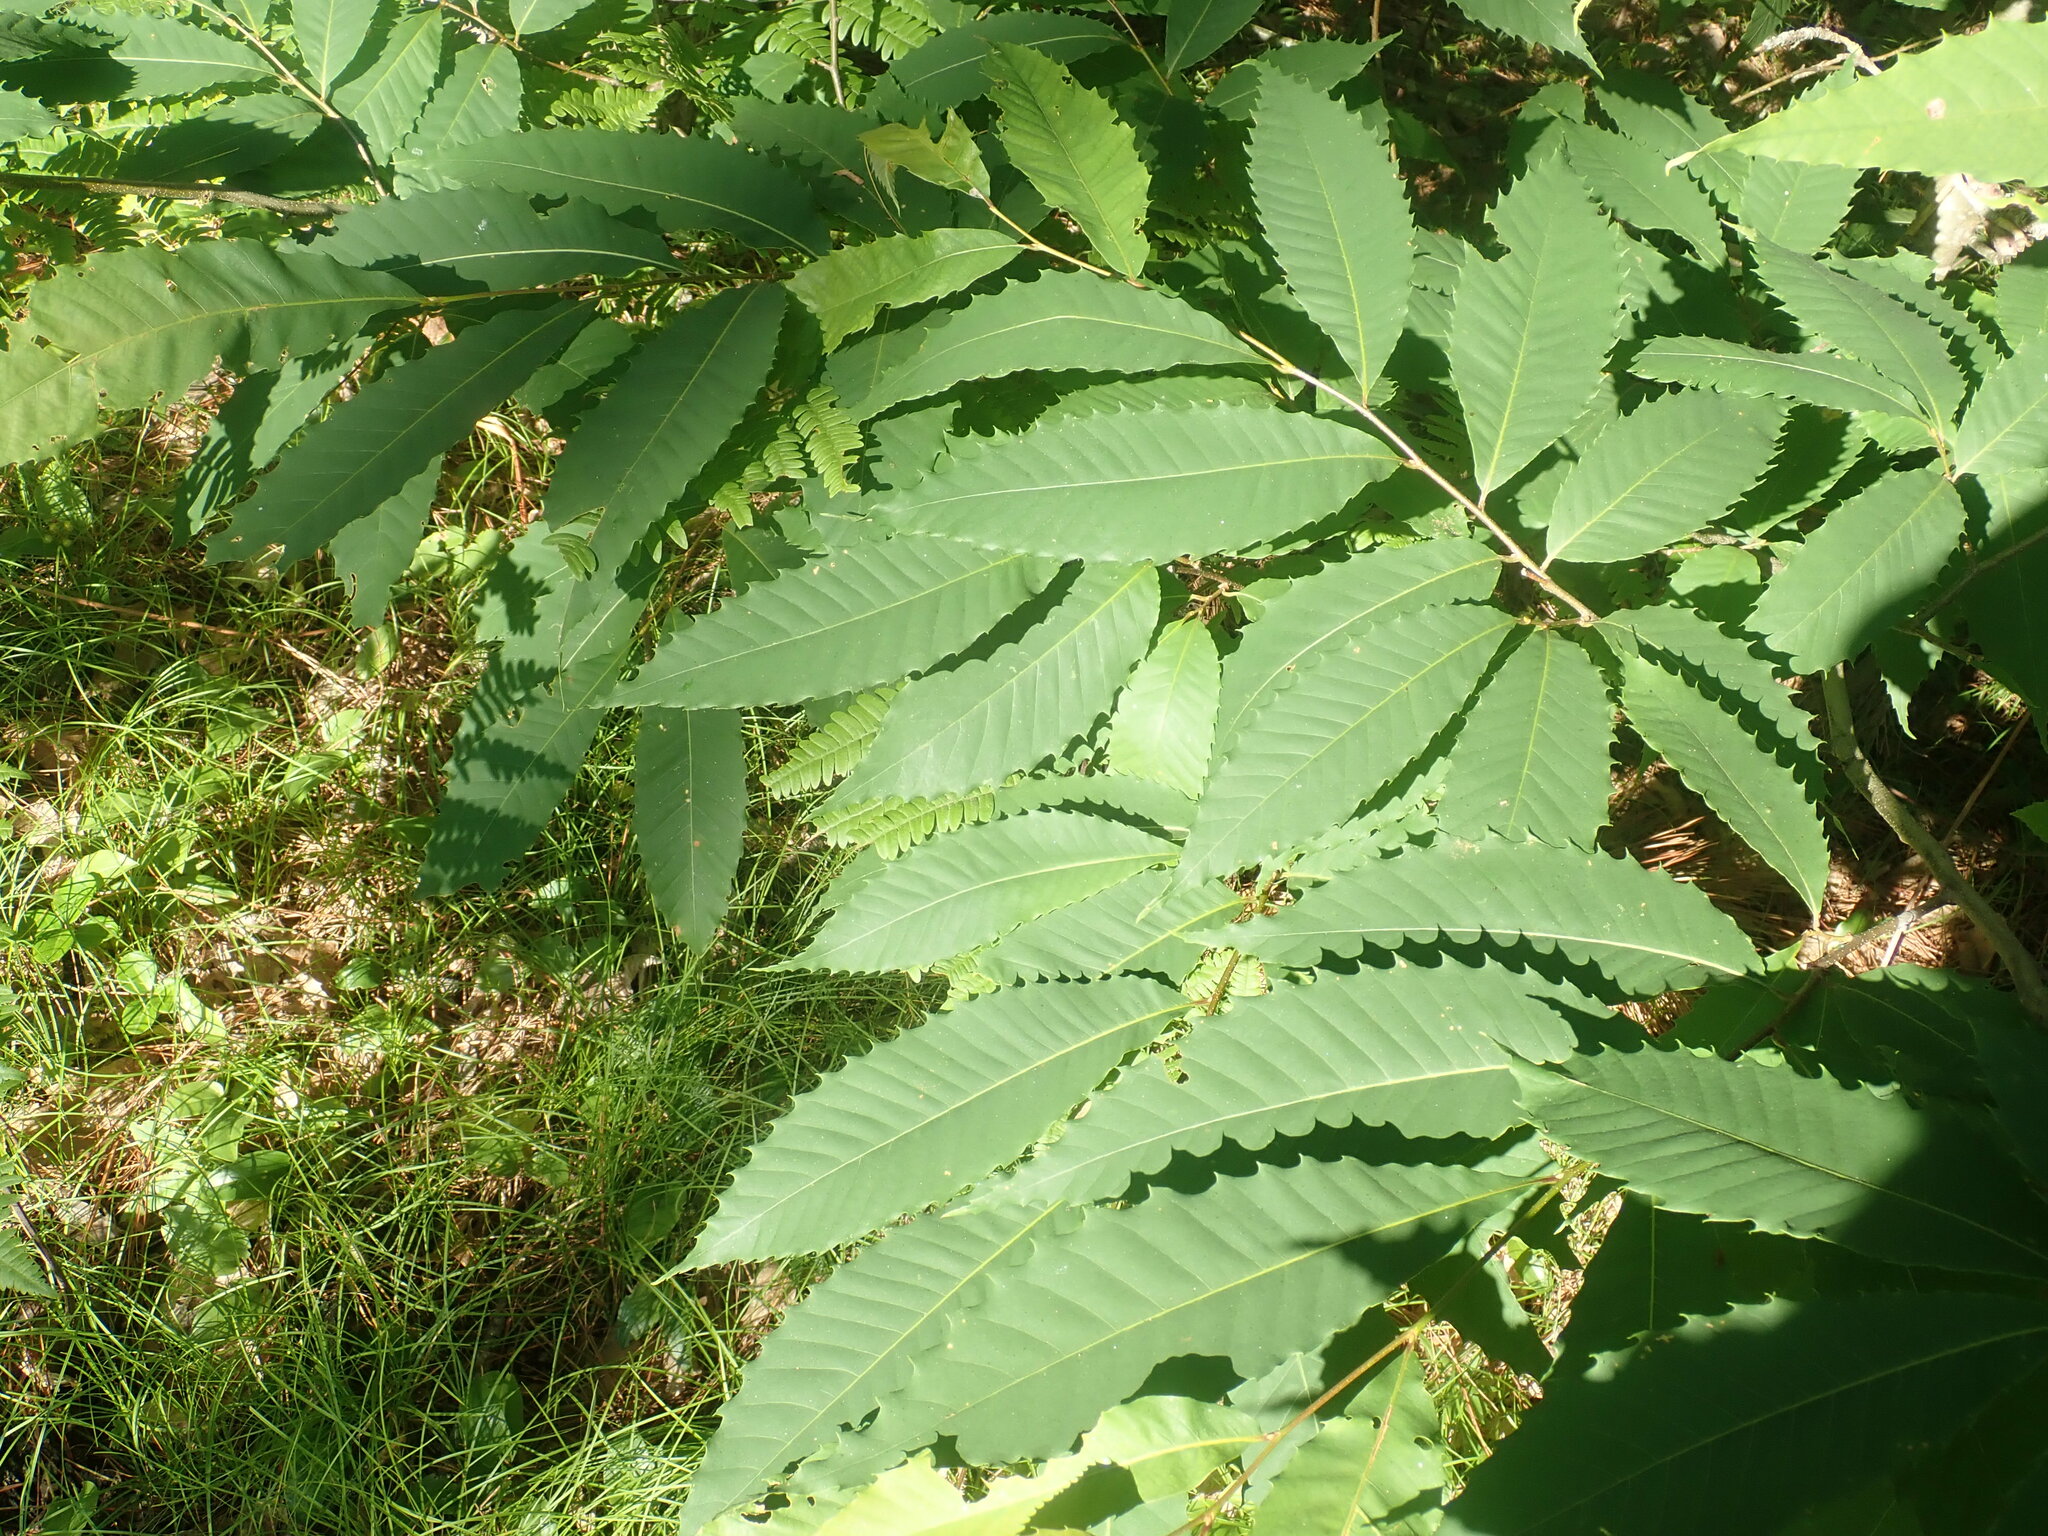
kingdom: Plantae
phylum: Tracheophyta
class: Magnoliopsida
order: Fagales
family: Fagaceae
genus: Castanea
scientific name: Castanea dentata
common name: American chestnut
